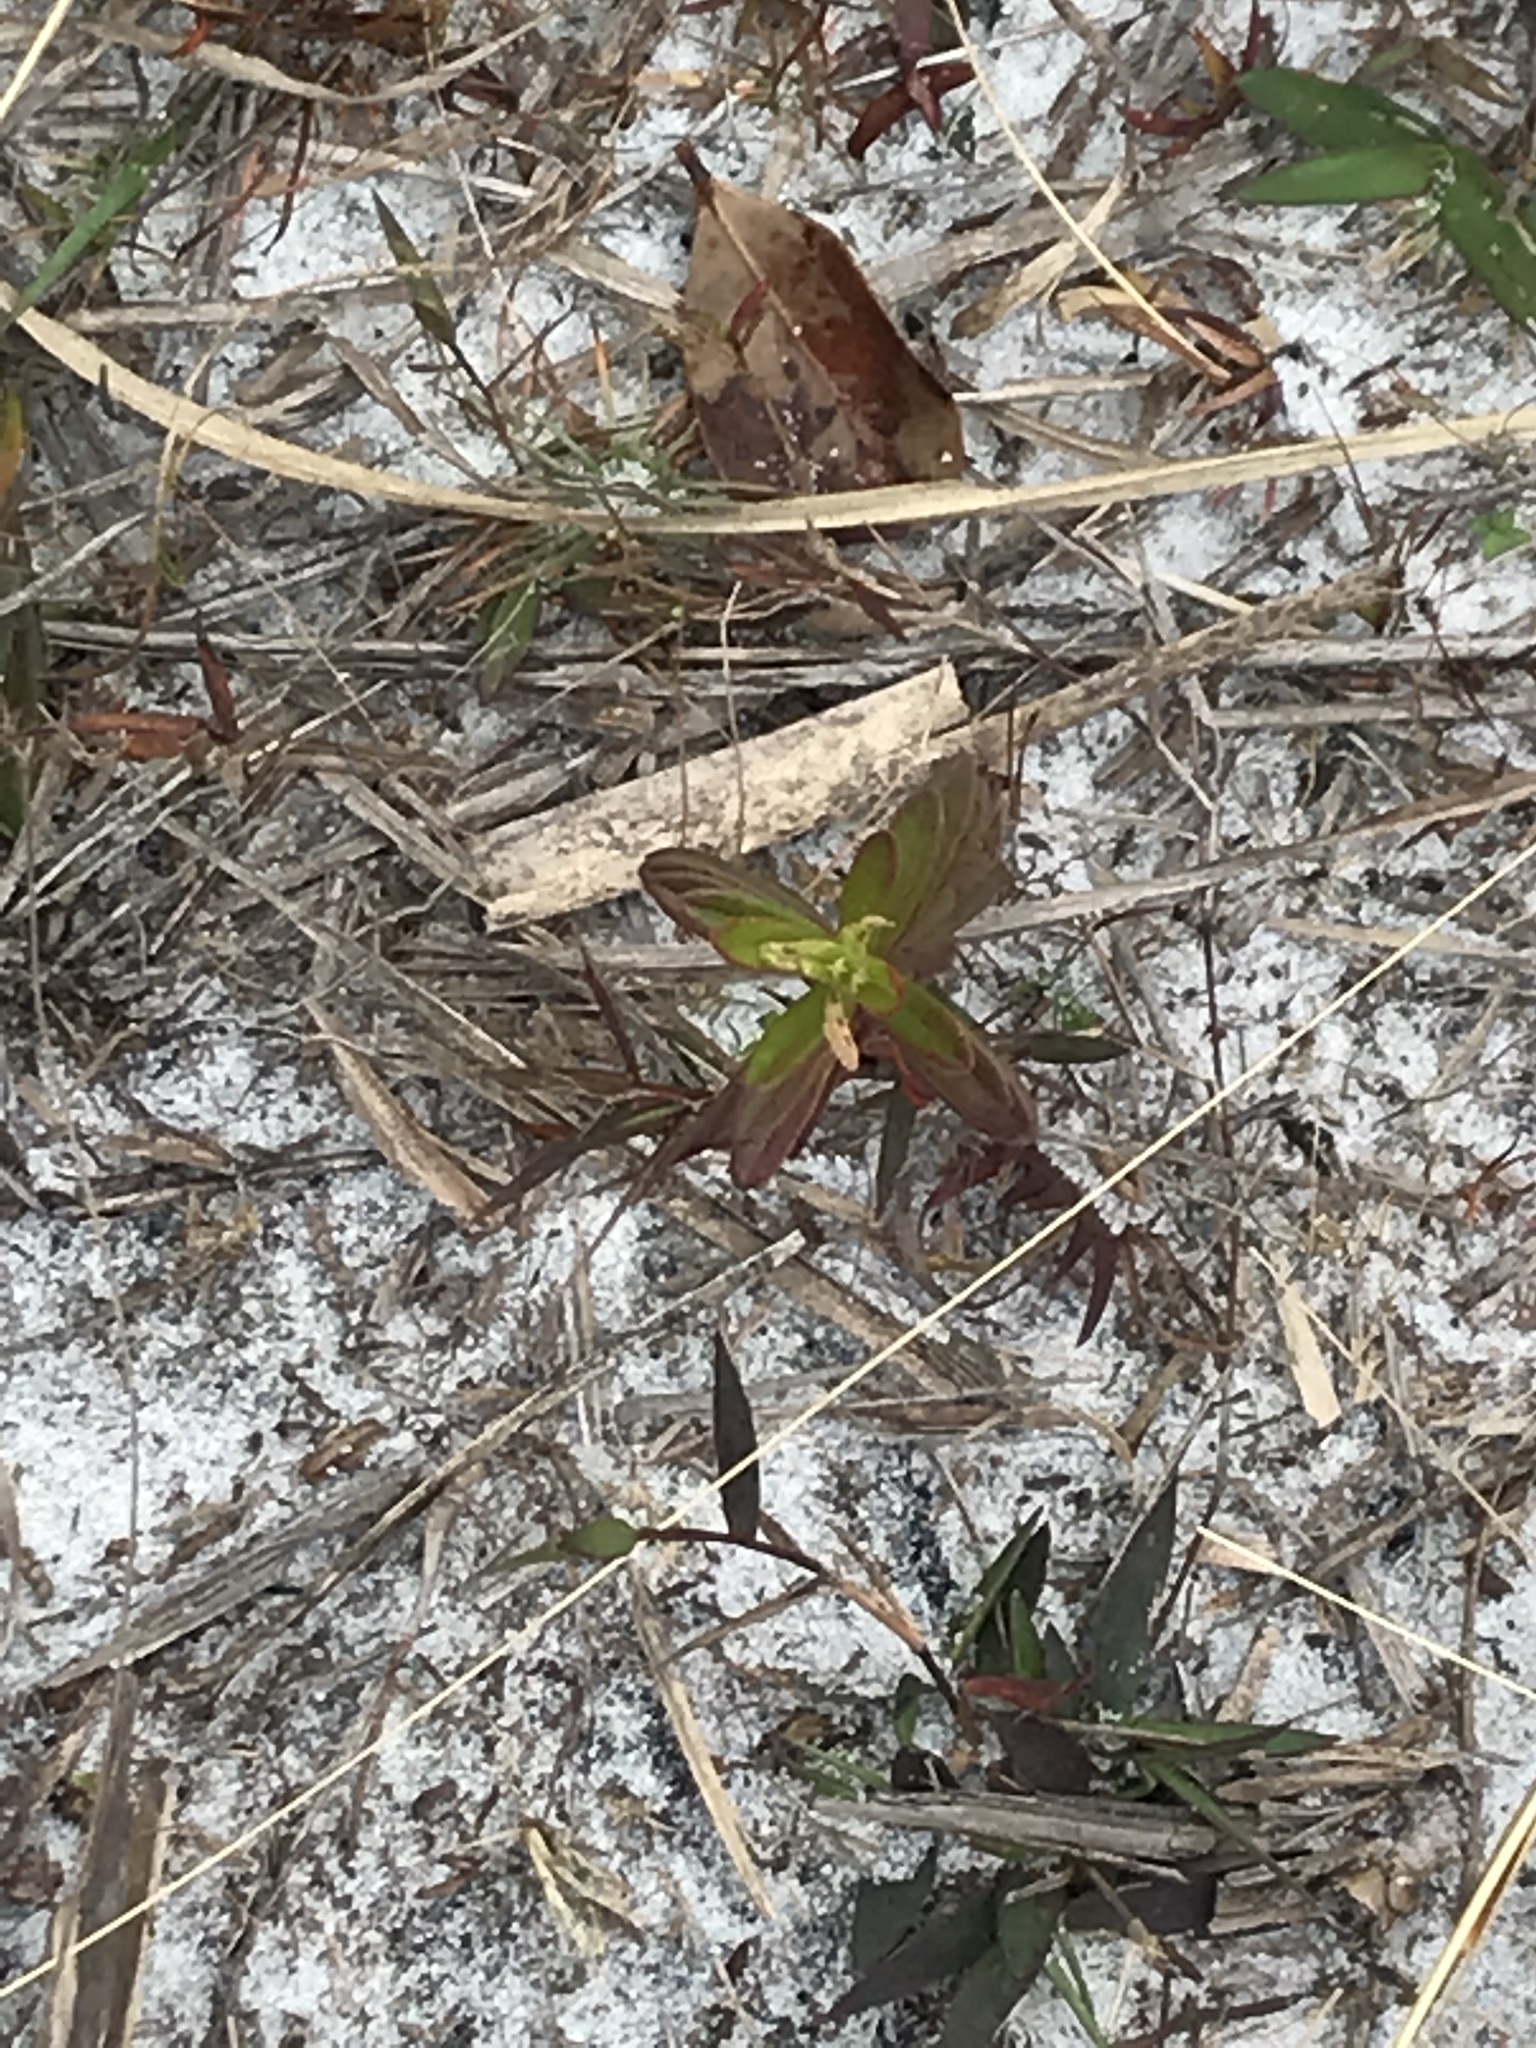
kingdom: Plantae
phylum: Tracheophyta
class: Magnoliopsida
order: Malpighiales
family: Hypericaceae
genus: Hypericum
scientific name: Hypericum cistifolium
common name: Round-pod st. john's-wort
